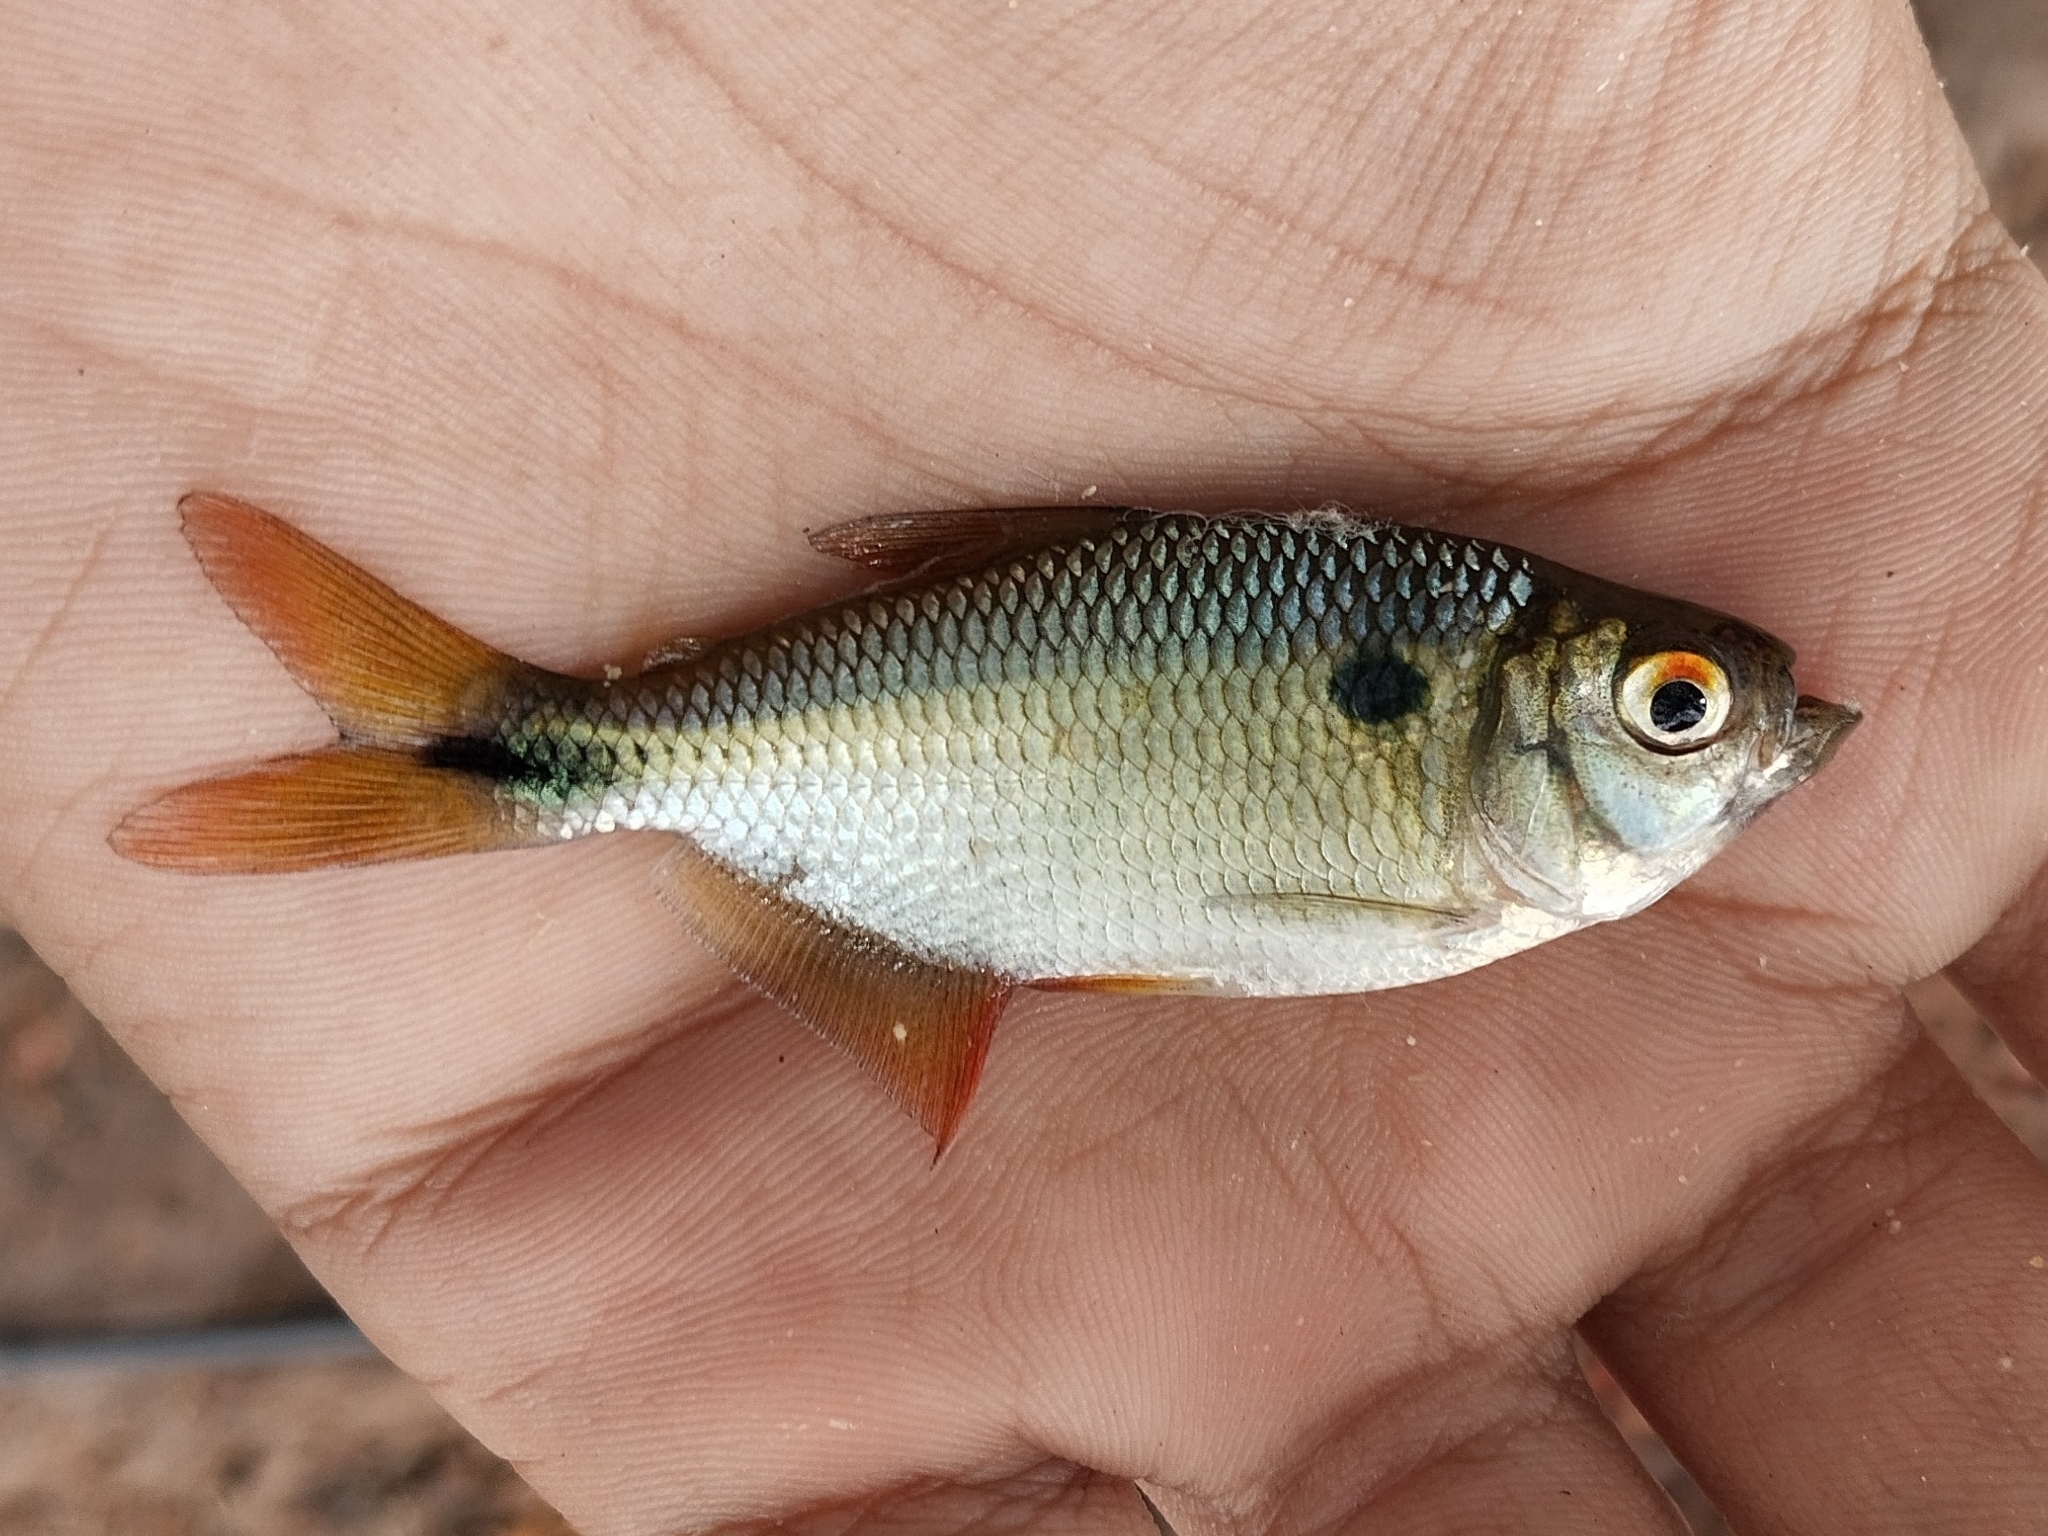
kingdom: Animalia
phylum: Chordata
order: Characiformes
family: Characidae
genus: Astyanax
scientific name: Astyanax bimaculatus
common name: Twospot astyanax
